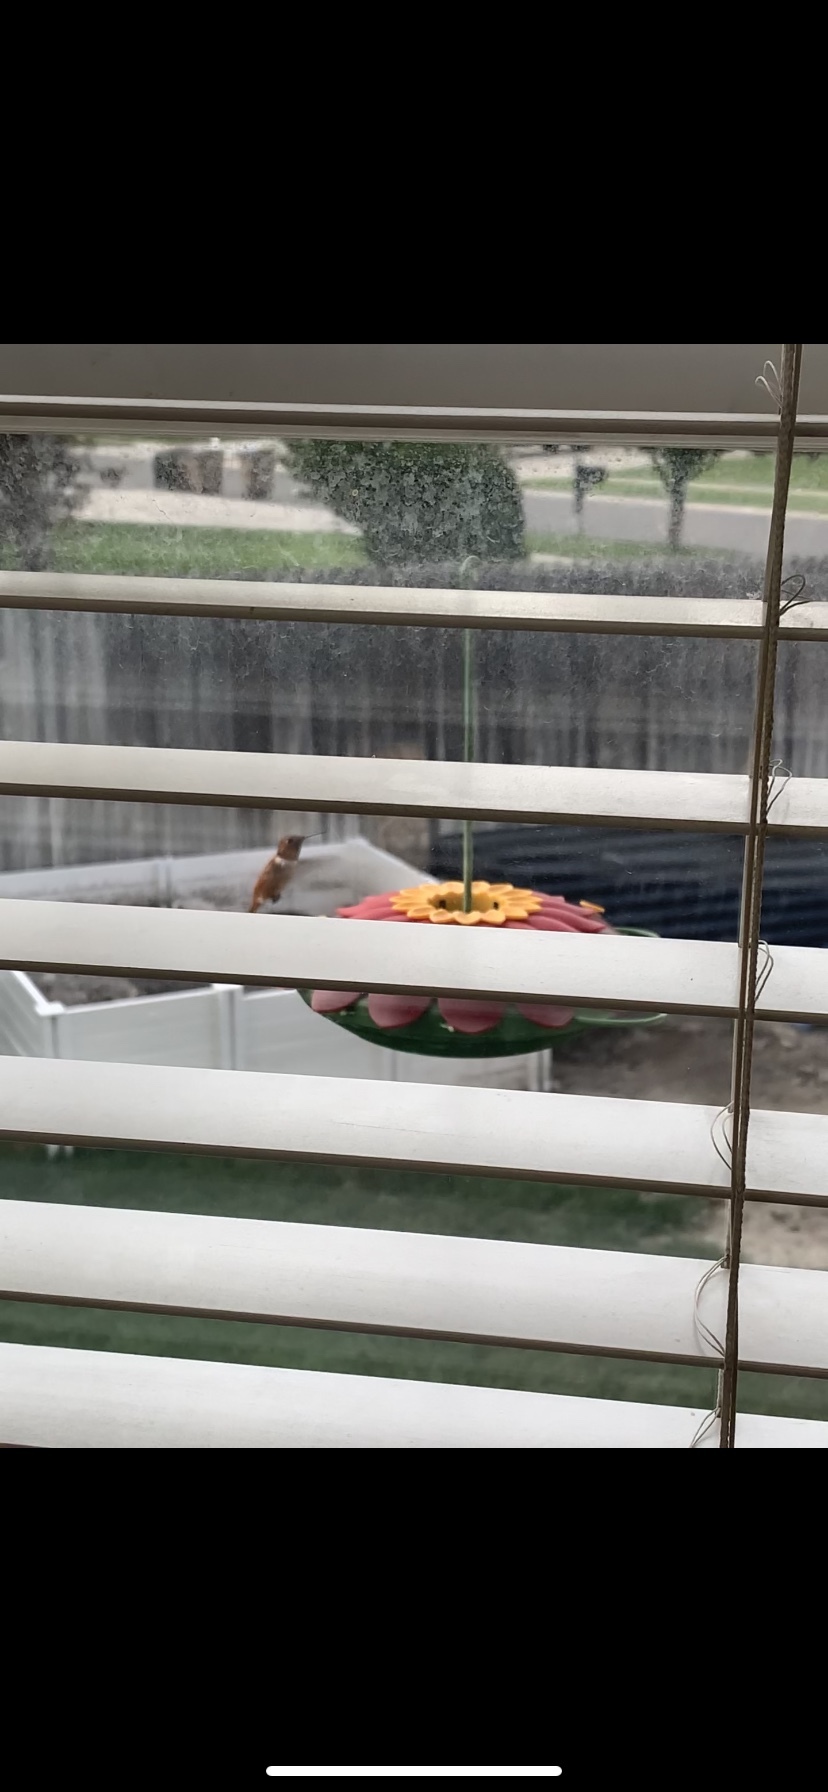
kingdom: Animalia
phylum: Chordata
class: Aves
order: Apodiformes
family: Trochilidae
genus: Selasphorus
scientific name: Selasphorus rufus
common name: Rufous hummingbird
